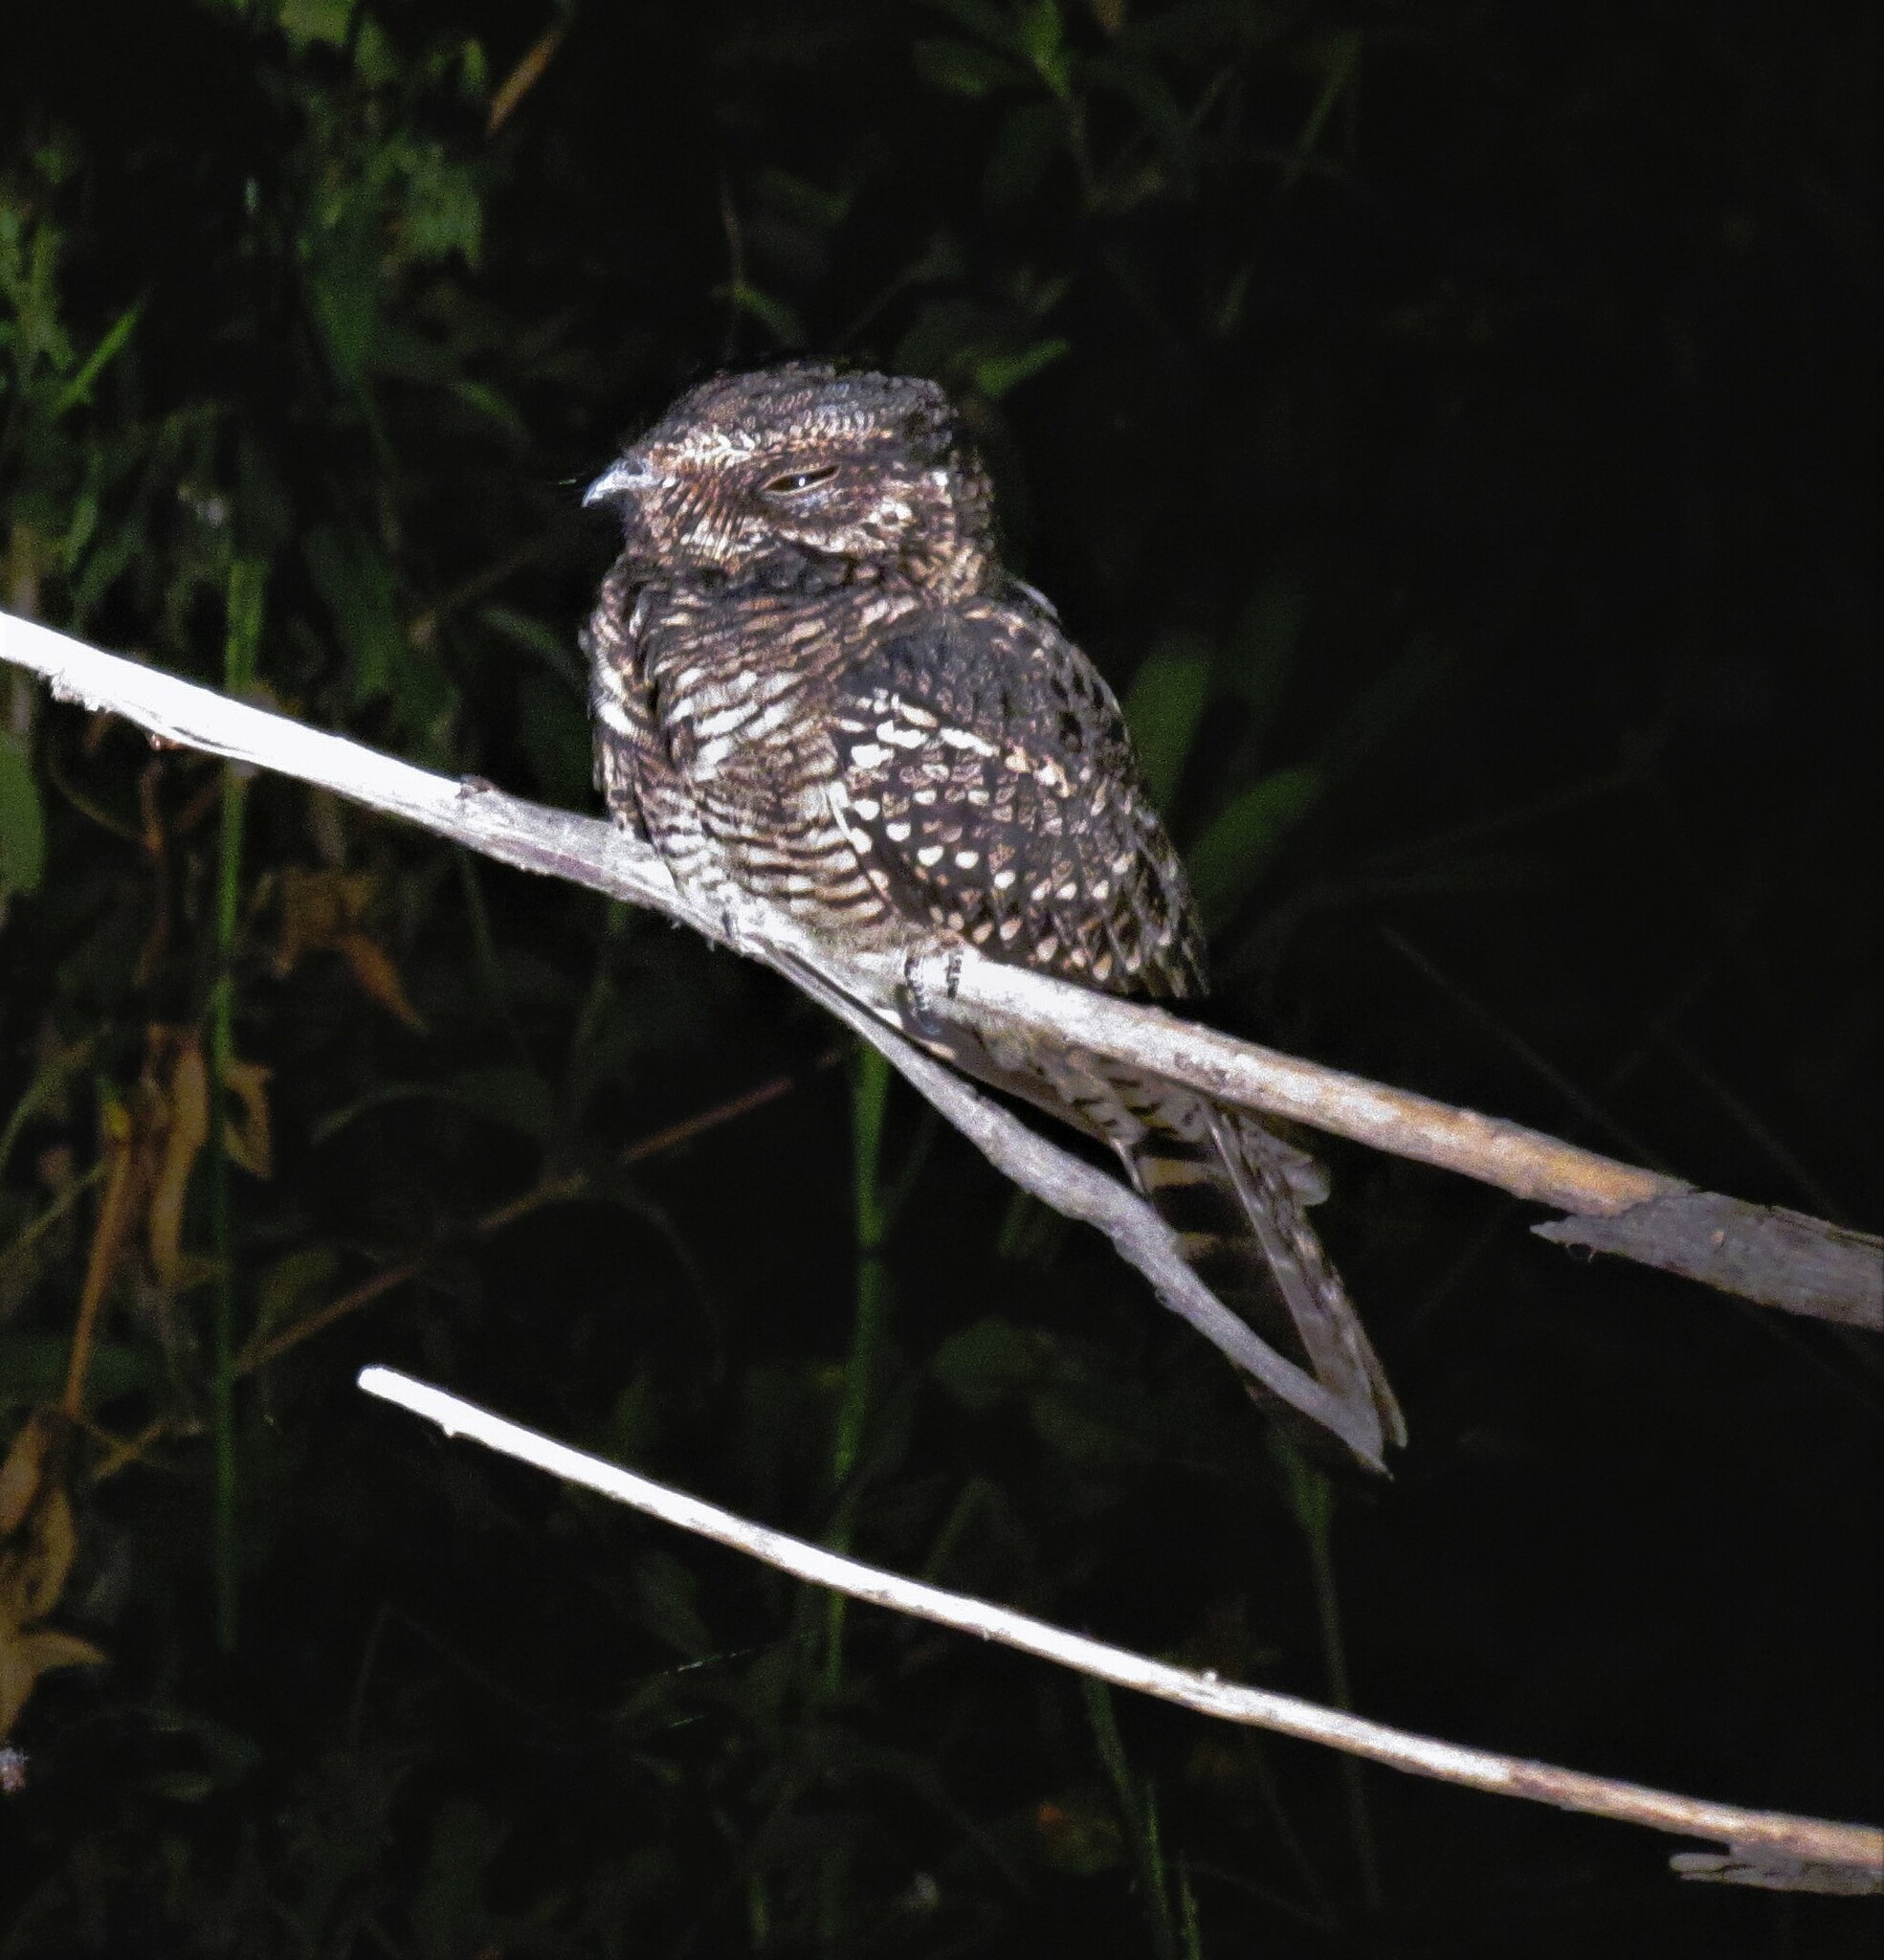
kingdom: Animalia
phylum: Chordata
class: Aves
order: Caprimulgiformes
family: Caprimulgidae
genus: Hydropsalis
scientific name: Hydropsalis torquata
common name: Scissor-tailed nightjar
